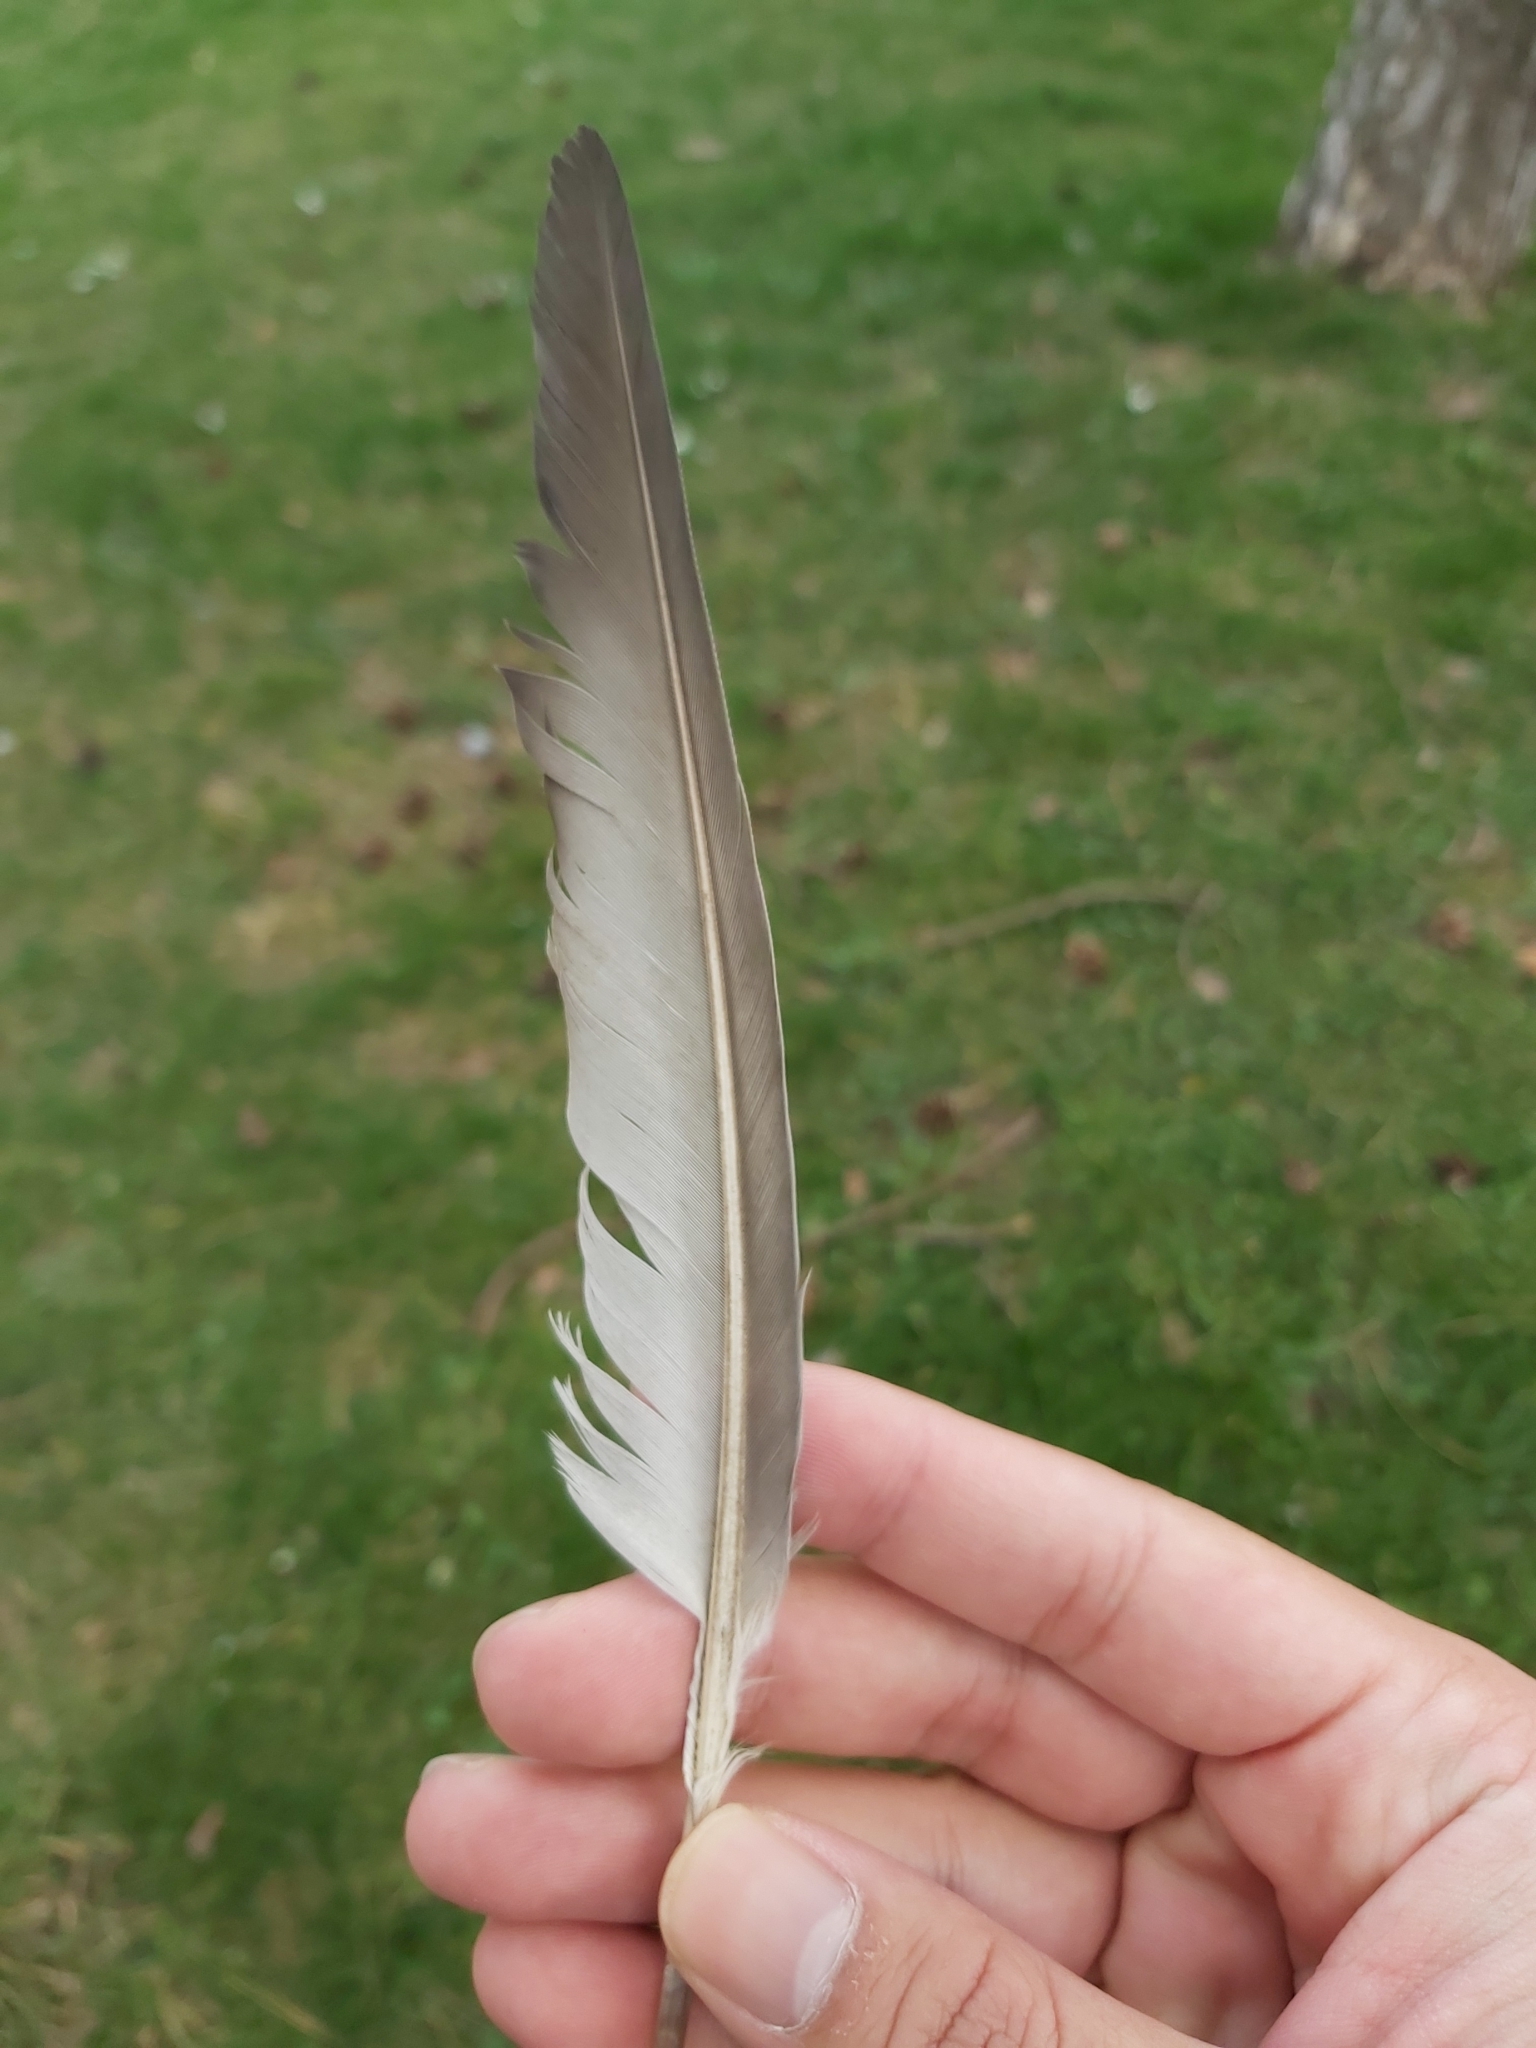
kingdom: Animalia
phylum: Chordata
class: Aves
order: Columbiformes
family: Columbidae
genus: Columba
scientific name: Columba livia
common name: Rock pigeon
